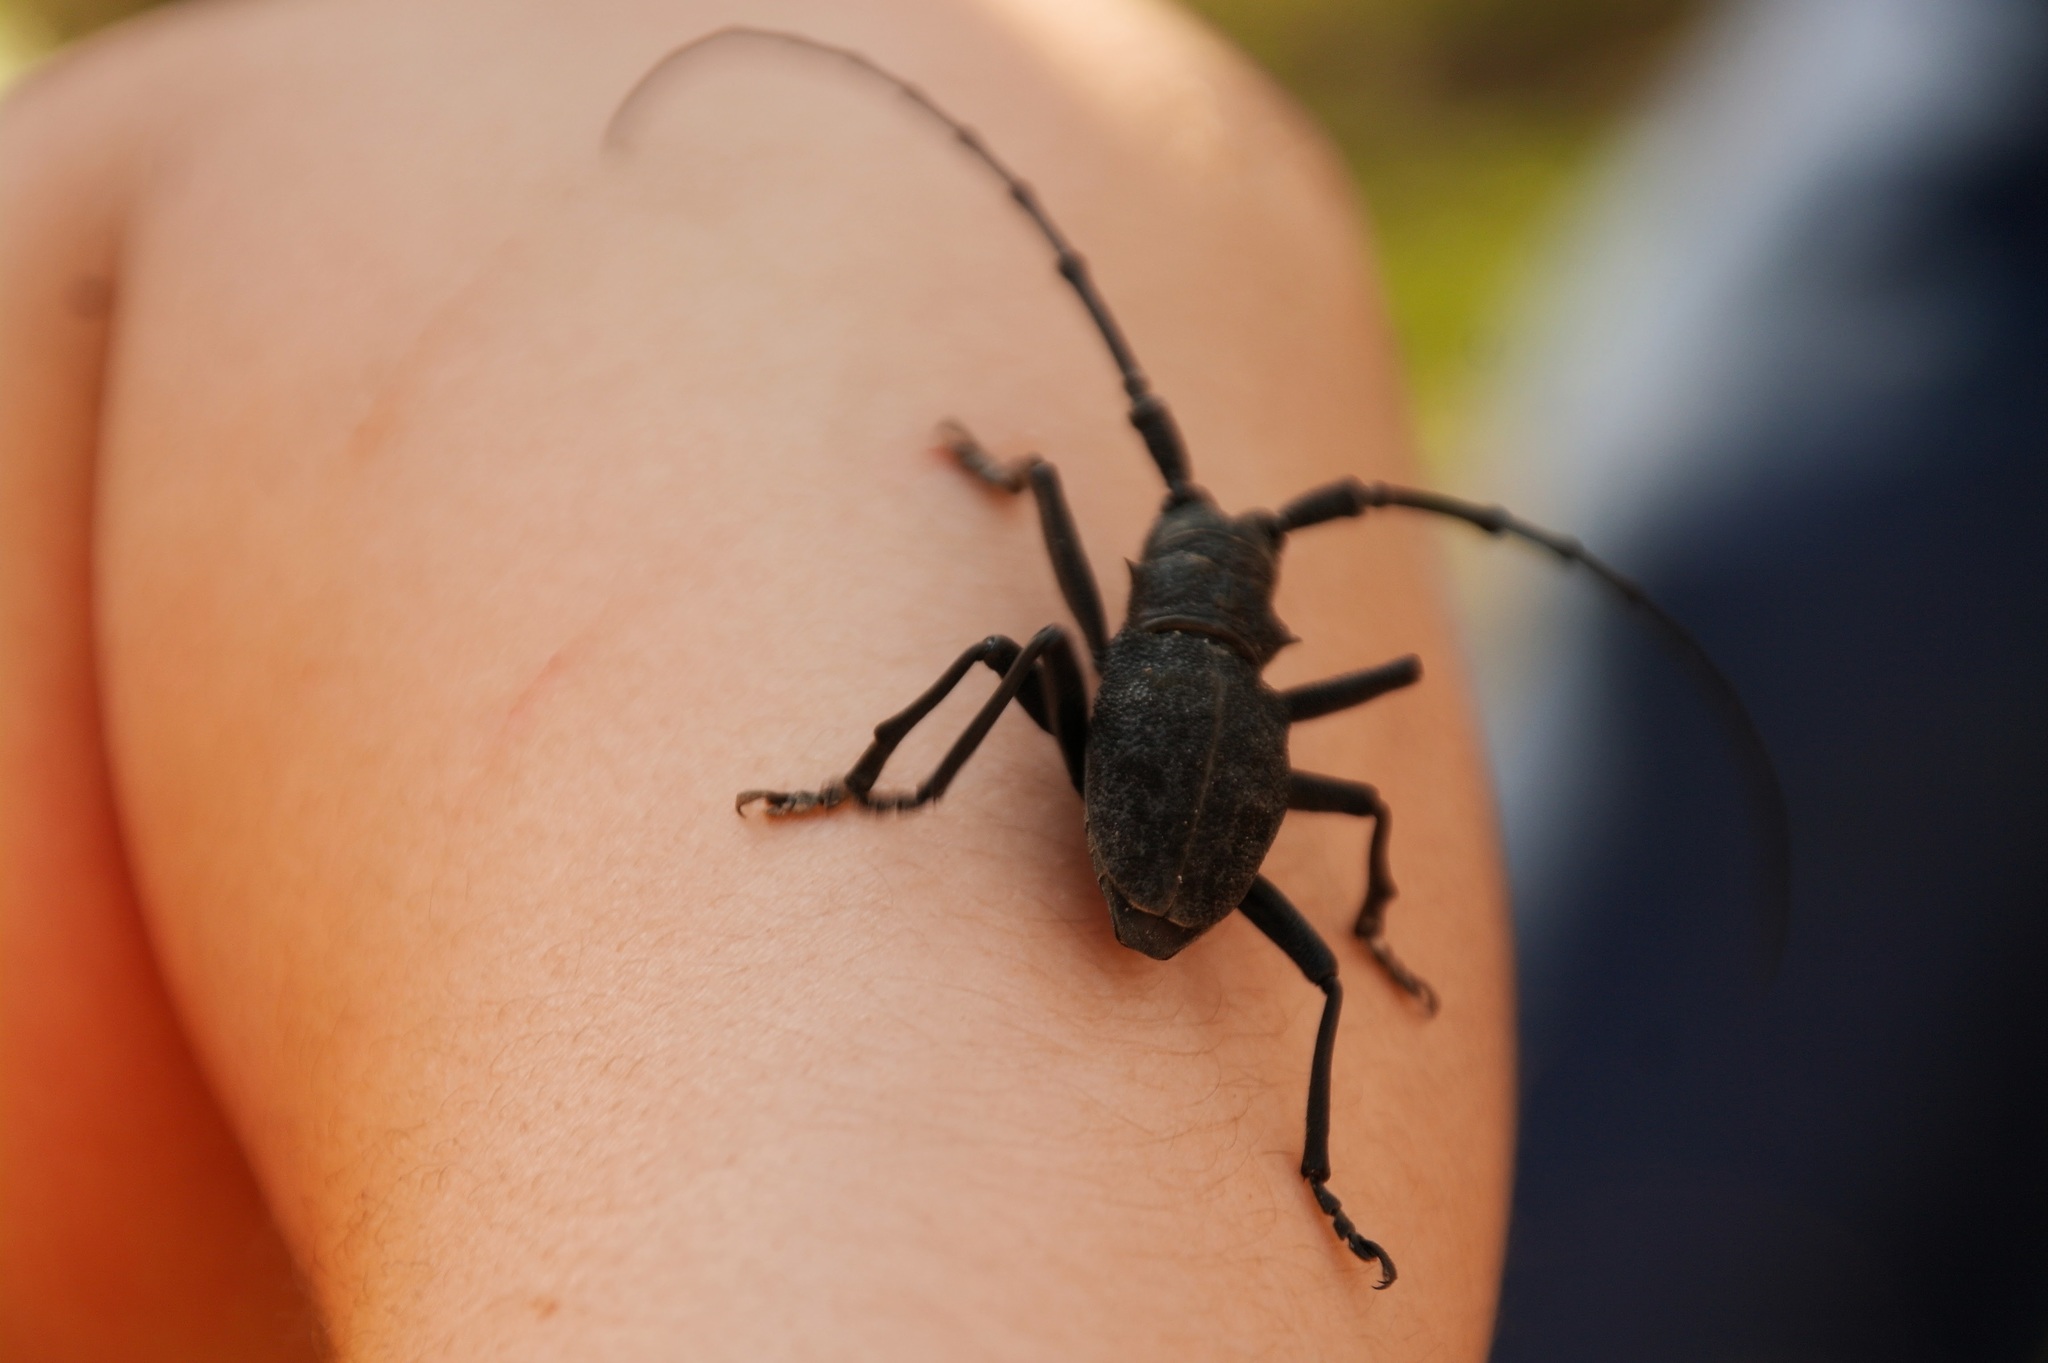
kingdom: Animalia
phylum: Arthropoda
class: Insecta
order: Coleoptera
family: Cerambycidae
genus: Morimus
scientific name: Morimus verecundus
